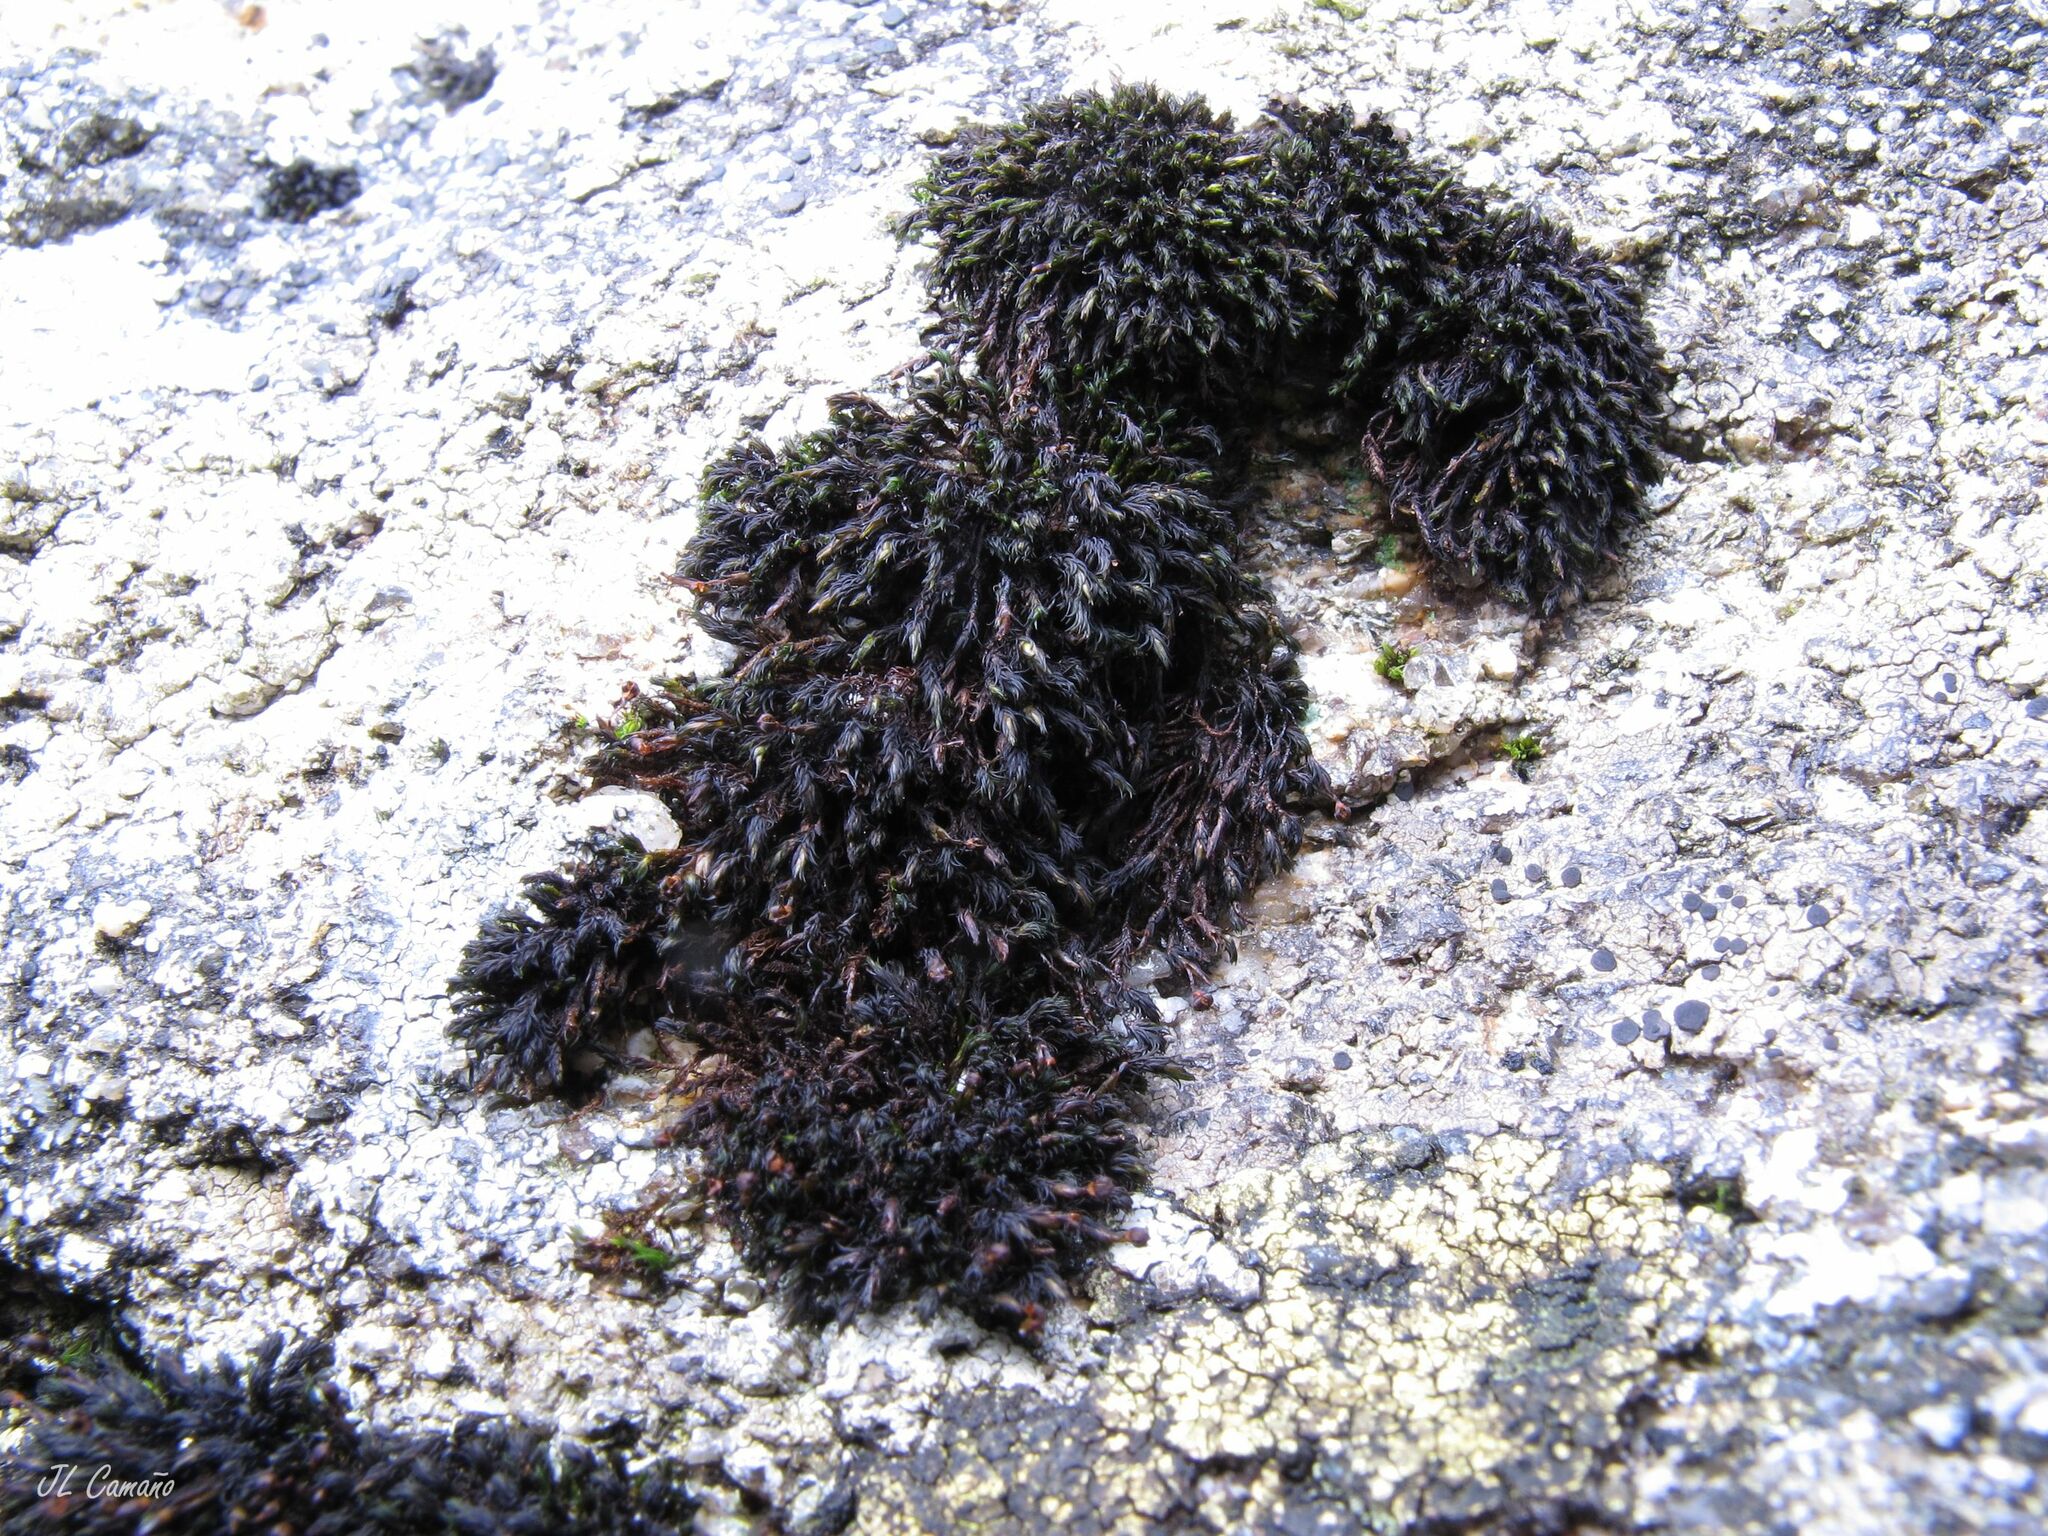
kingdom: Plantae
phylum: Bryophyta
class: Andreaeopsida
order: Andreaeales
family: Andreaeaceae
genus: Andreaea
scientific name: Andreaea rothii
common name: Dusky rock moss
